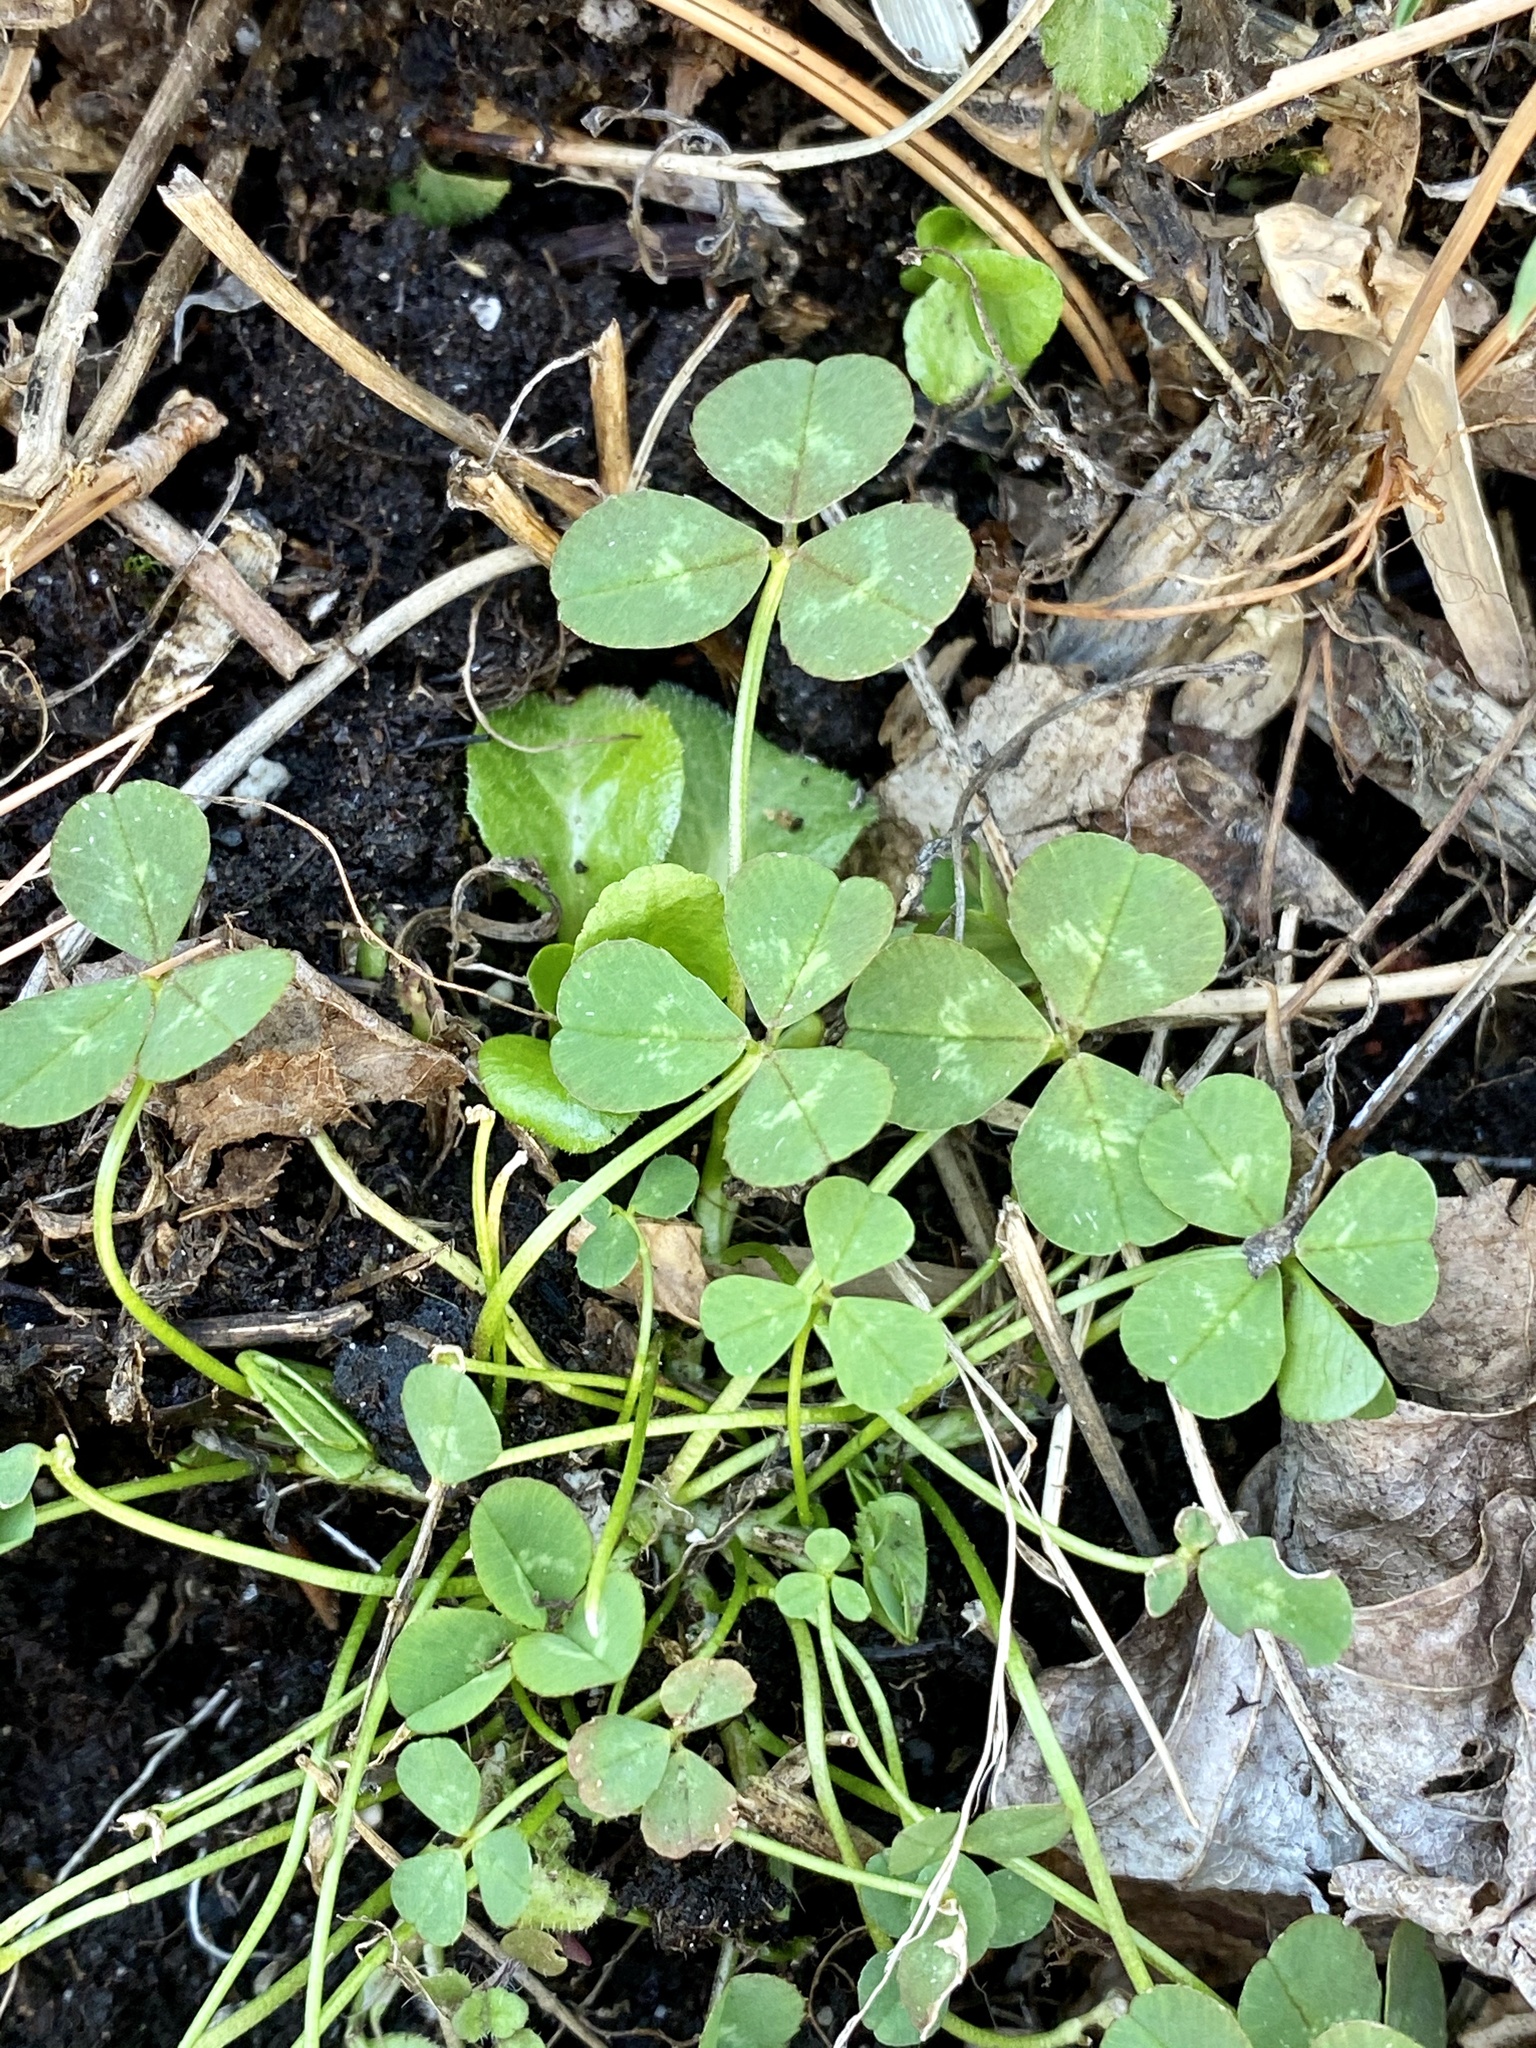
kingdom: Plantae
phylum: Tracheophyta
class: Magnoliopsida
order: Fabales
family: Fabaceae
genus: Trifolium
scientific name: Trifolium repens
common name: White clover
